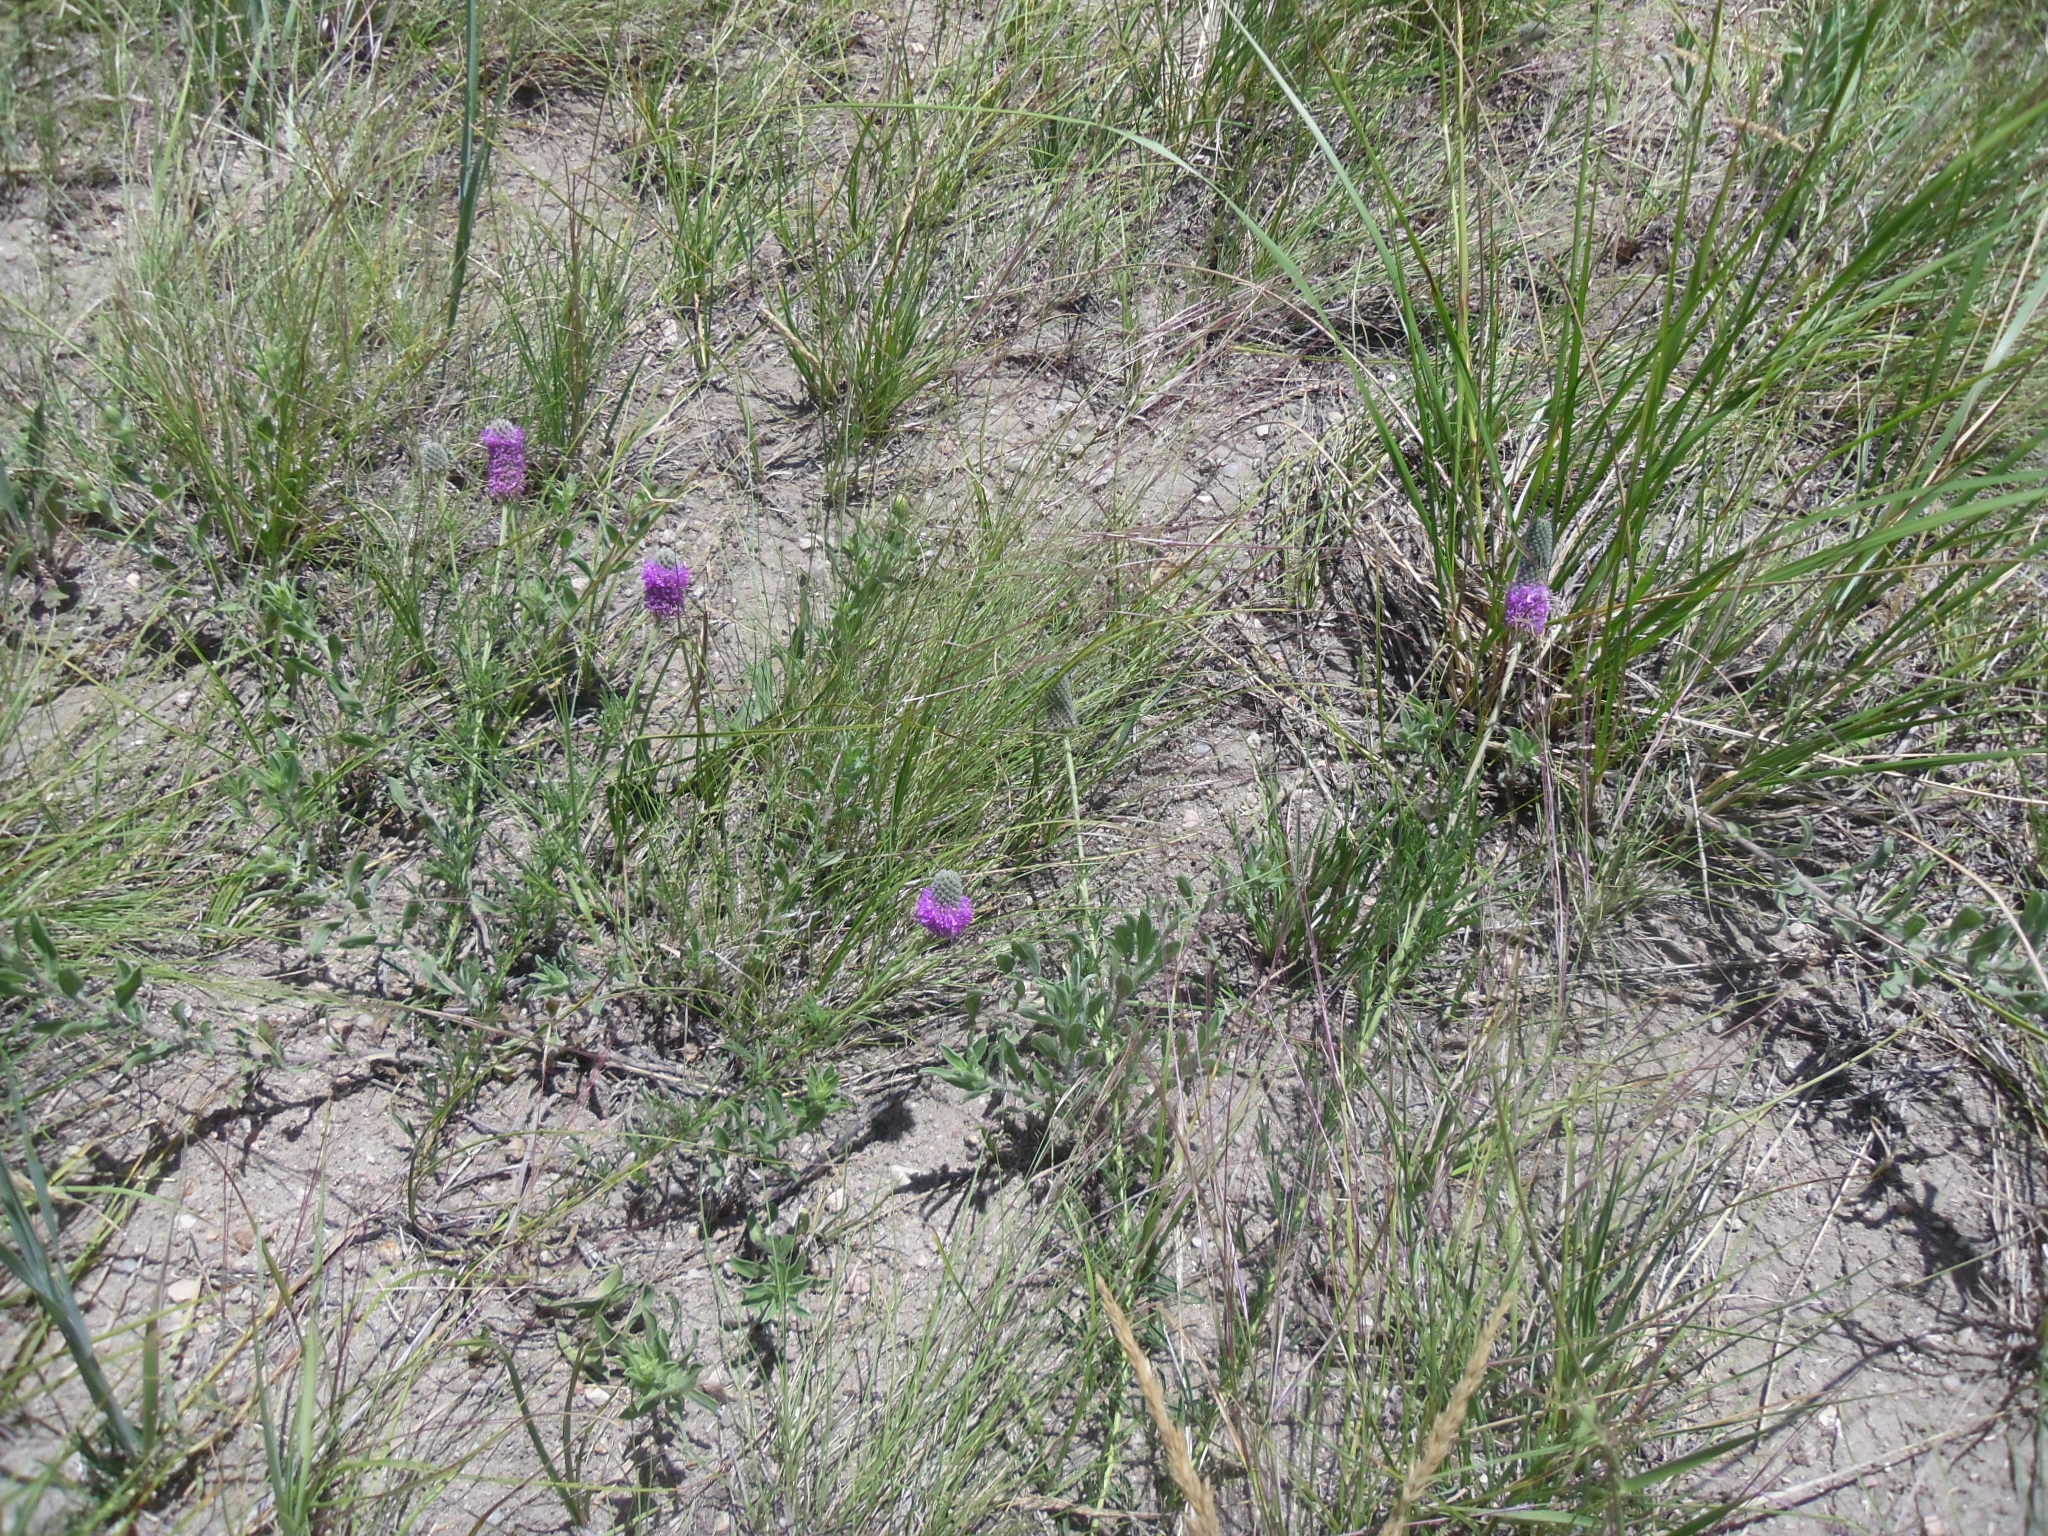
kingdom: Plantae
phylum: Tracheophyta
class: Magnoliopsida
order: Fabales
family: Fabaceae
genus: Dalea
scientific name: Dalea purpurea
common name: Purple prairie-clover
